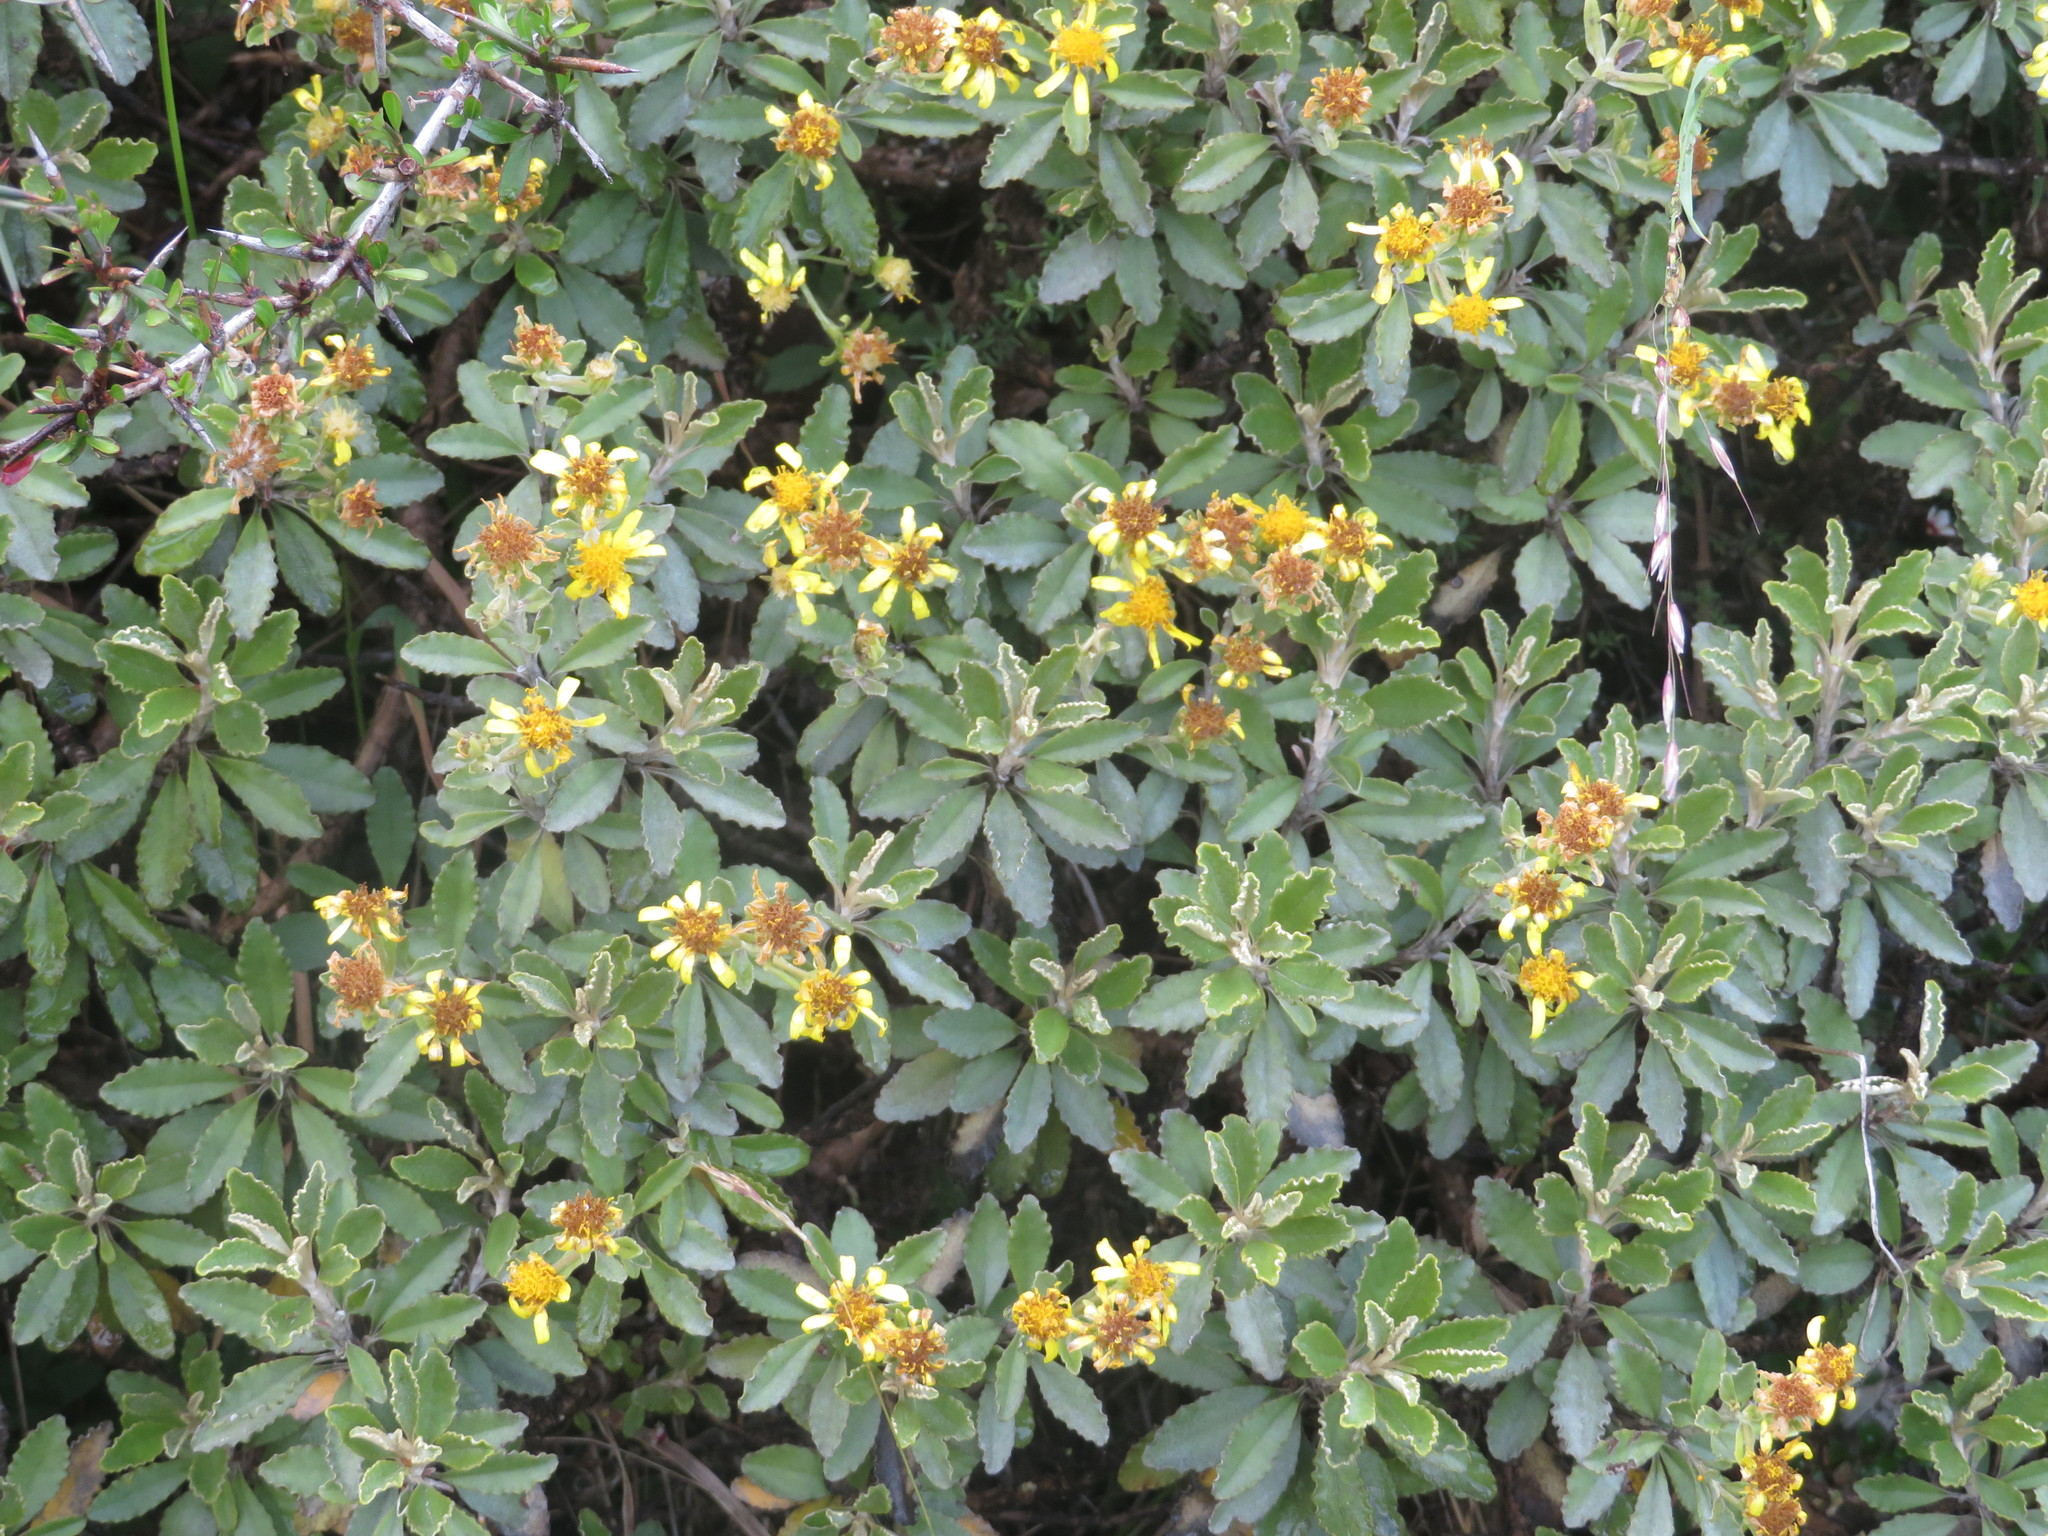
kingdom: Plantae
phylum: Tracheophyta
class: Magnoliopsida
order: Asterales
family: Asteraceae
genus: Brachyglottis
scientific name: Brachyglottis monroi
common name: Monro's ragwort
